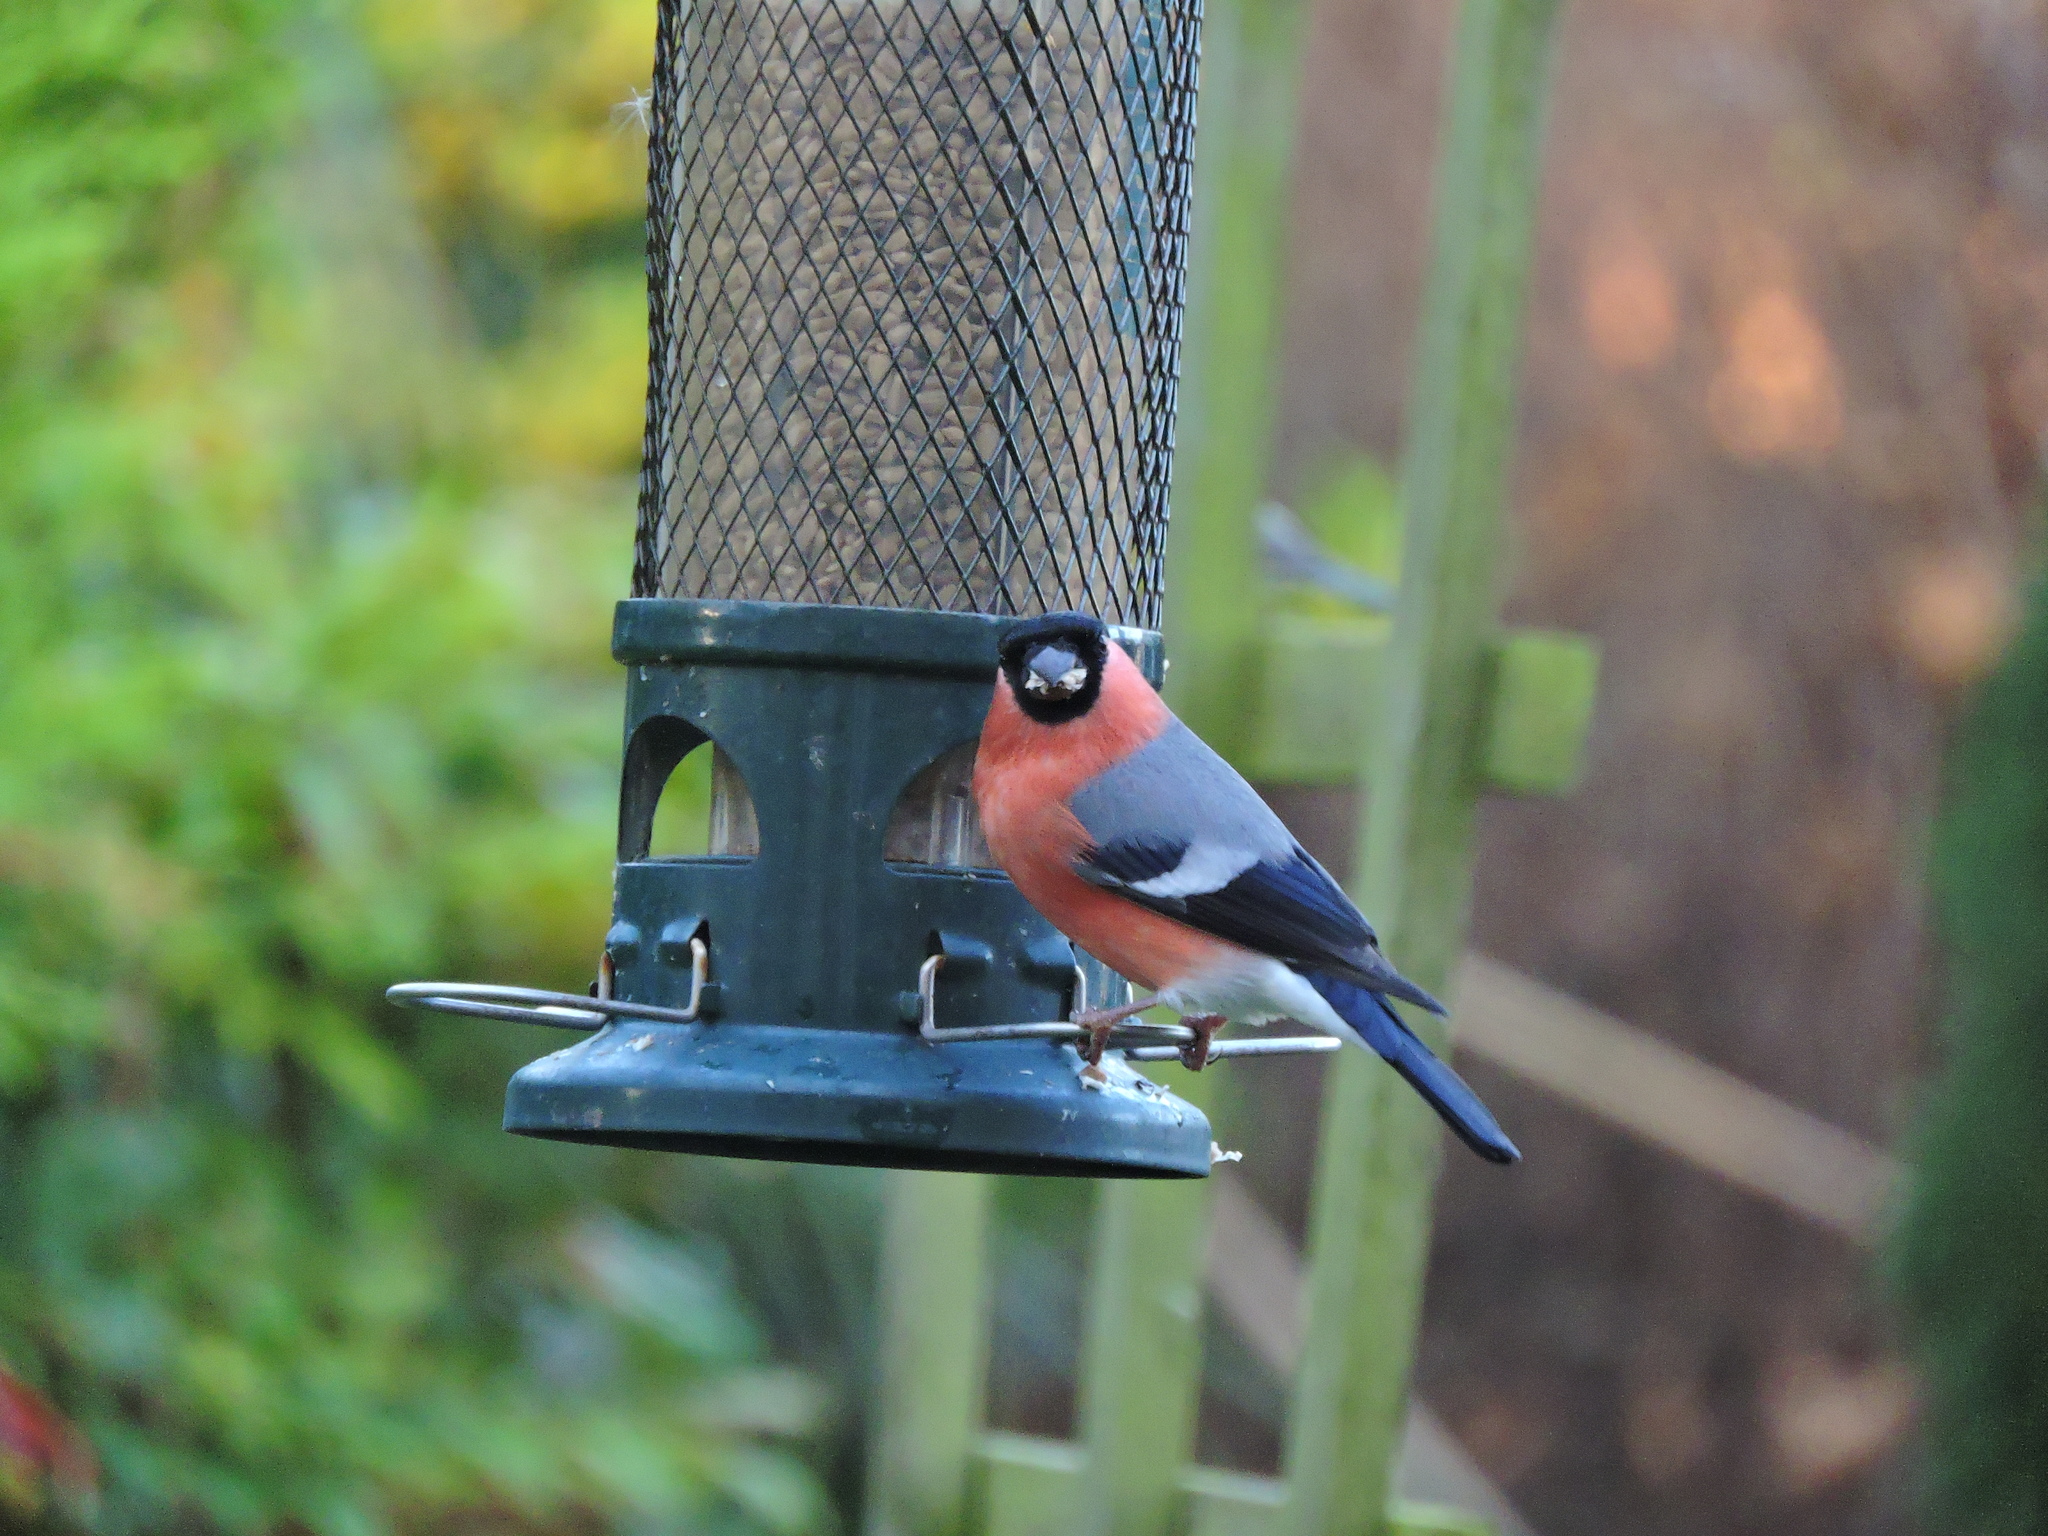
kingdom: Animalia
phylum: Chordata
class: Aves
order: Passeriformes
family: Fringillidae
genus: Pyrrhula
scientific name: Pyrrhula pyrrhula
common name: Eurasian bullfinch
